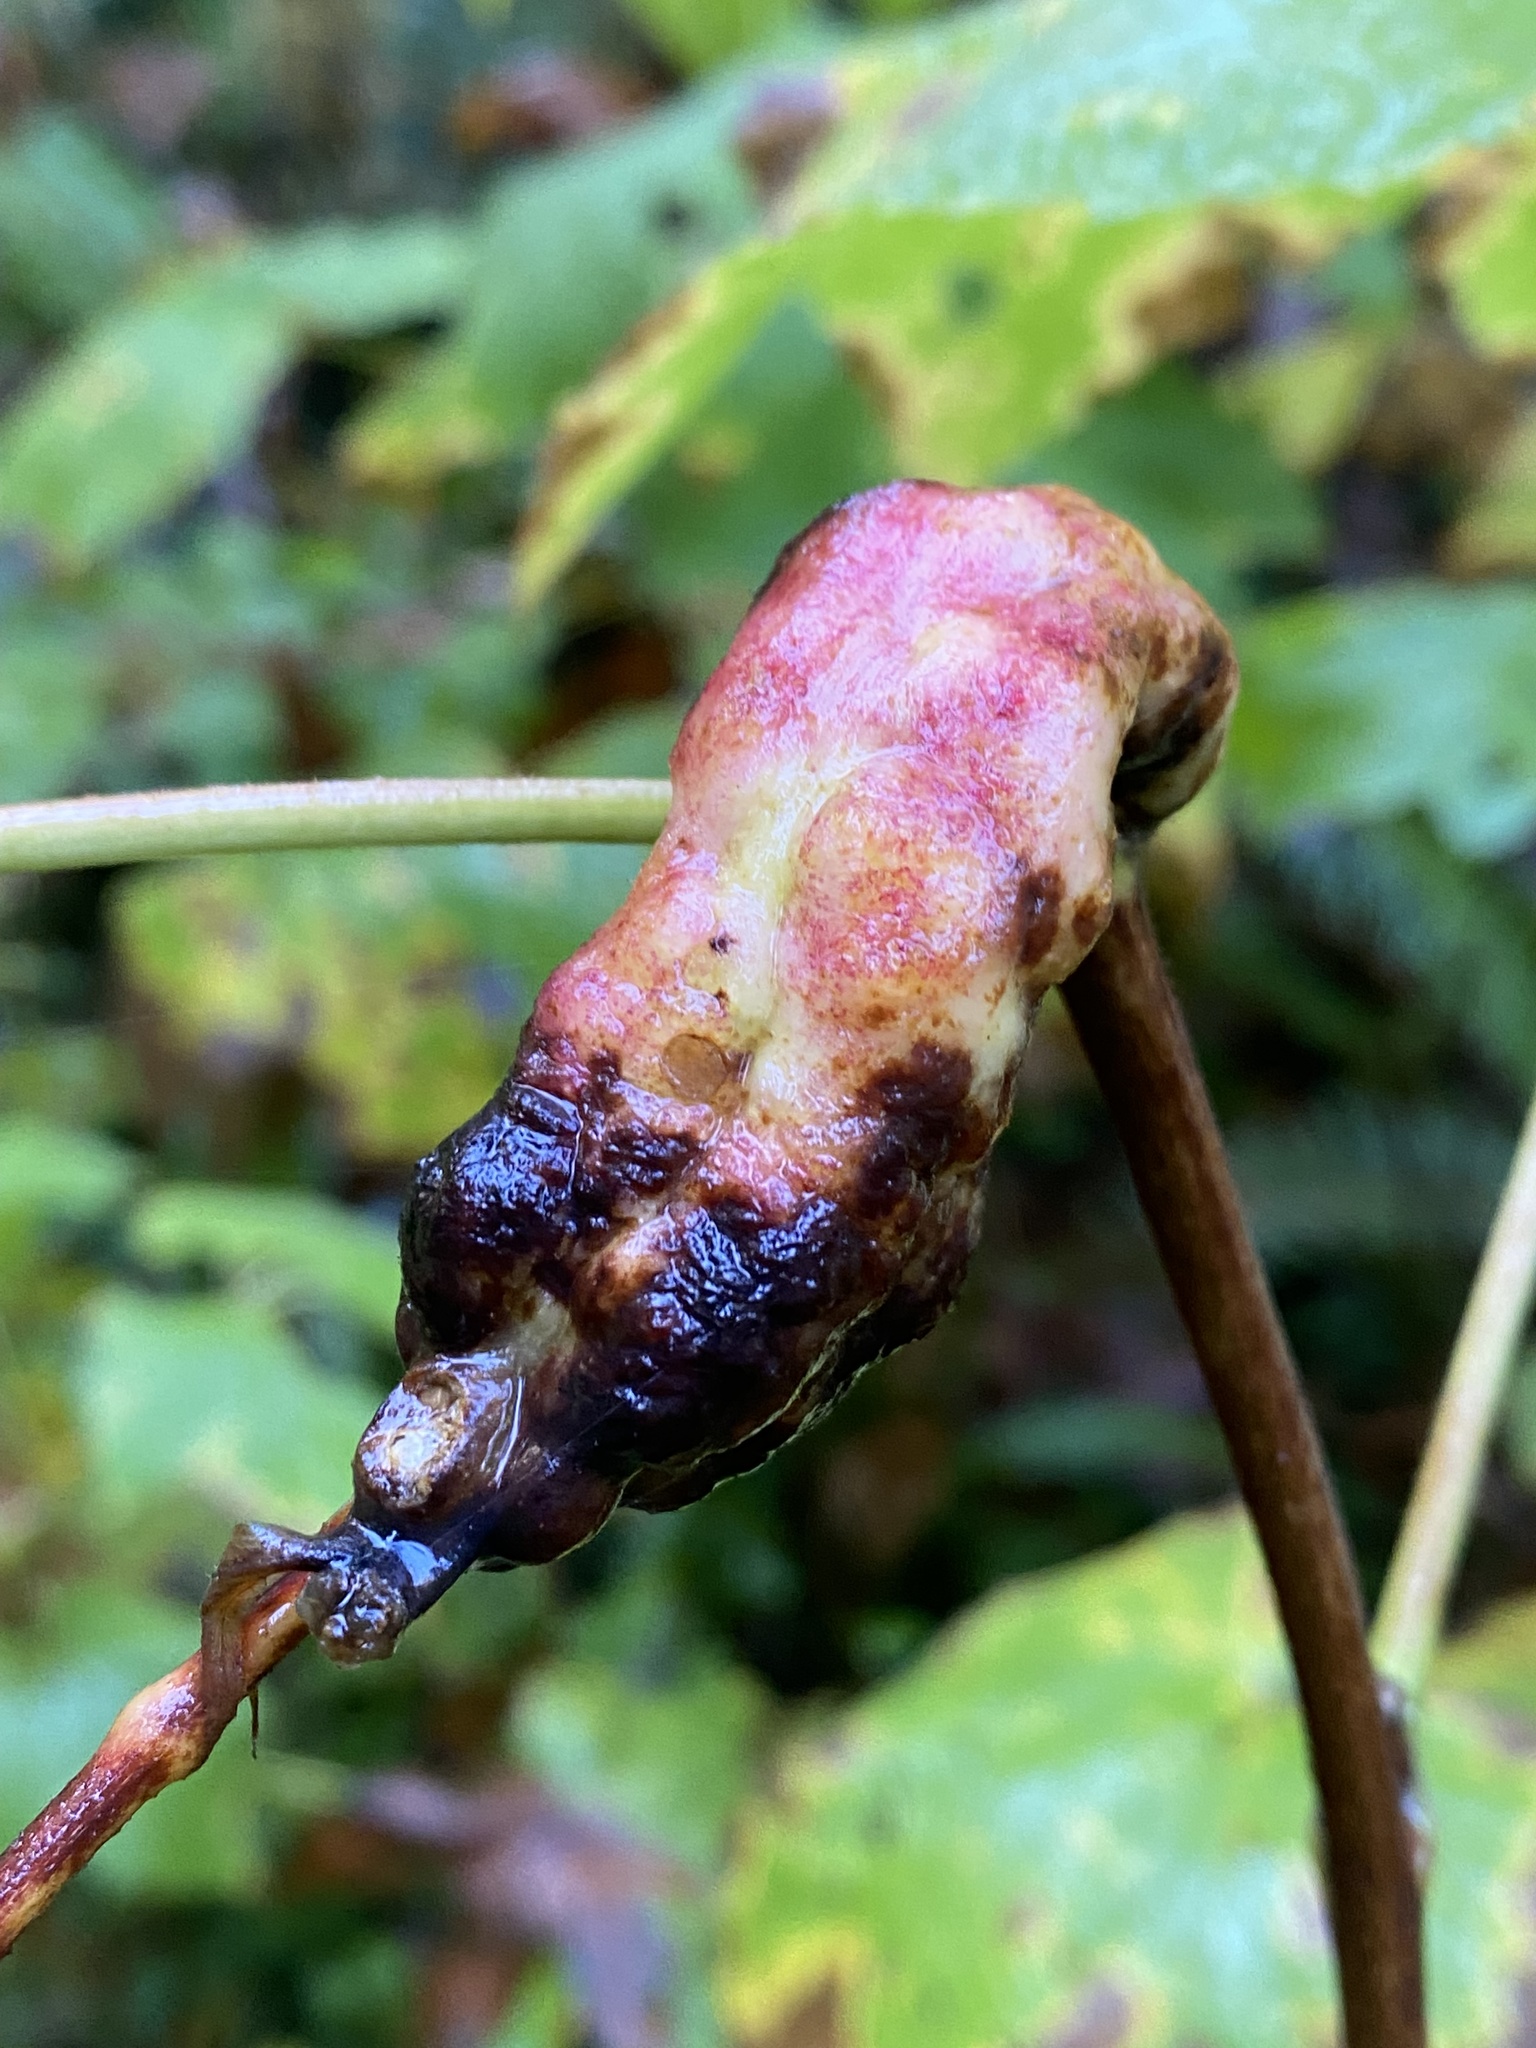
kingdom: Animalia
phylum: Arthropoda
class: Insecta
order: Hymenoptera
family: Cynipidae
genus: Diastrophus
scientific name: Diastrophus
